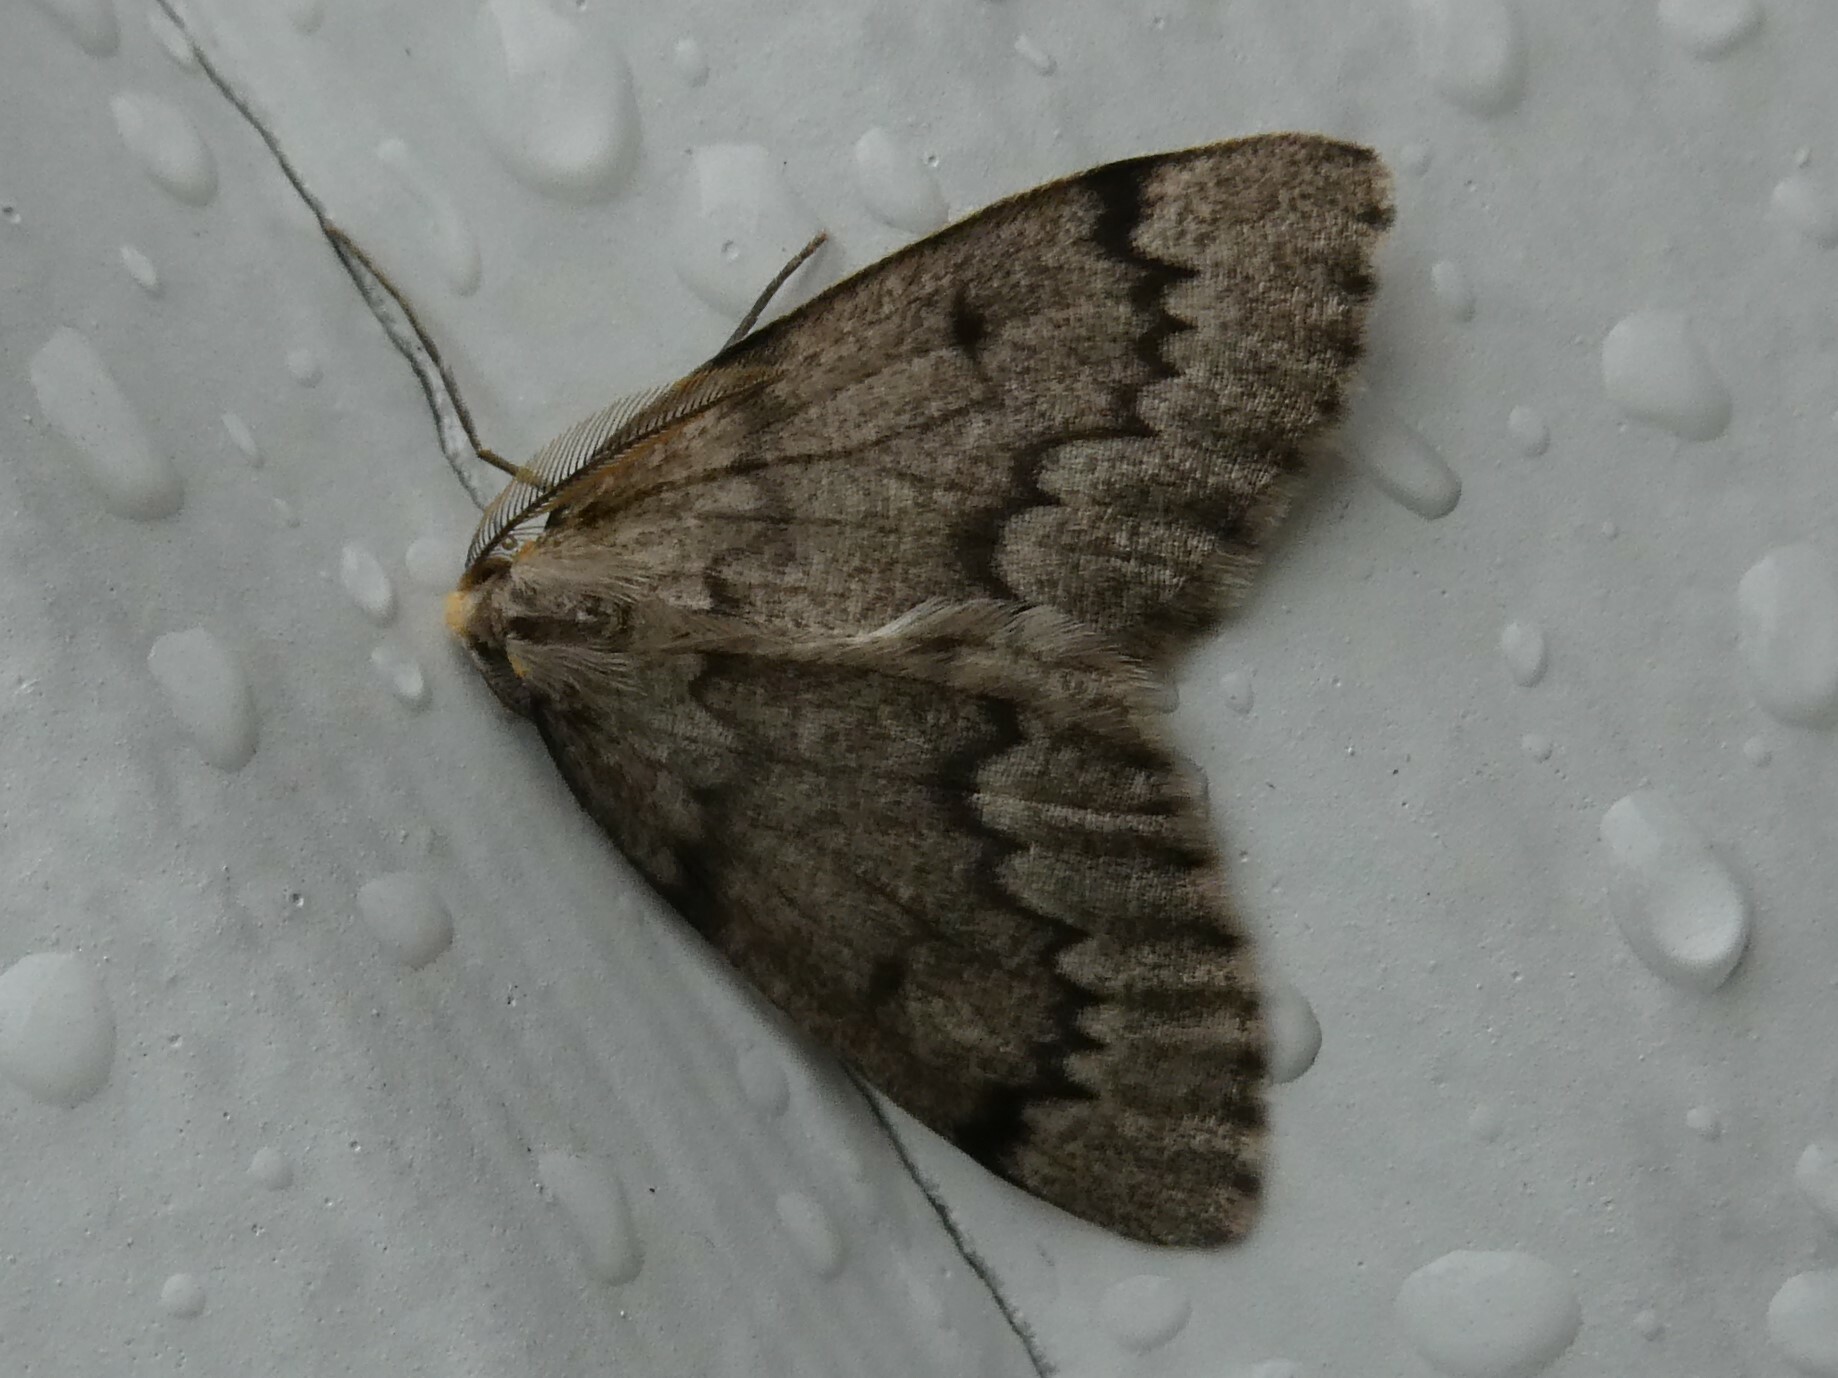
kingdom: Animalia
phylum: Arthropoda
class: Insecta
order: Lepidoptera
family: Geometridae
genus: Nepytia
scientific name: Nepytia canosaria
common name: False hemlock looper
